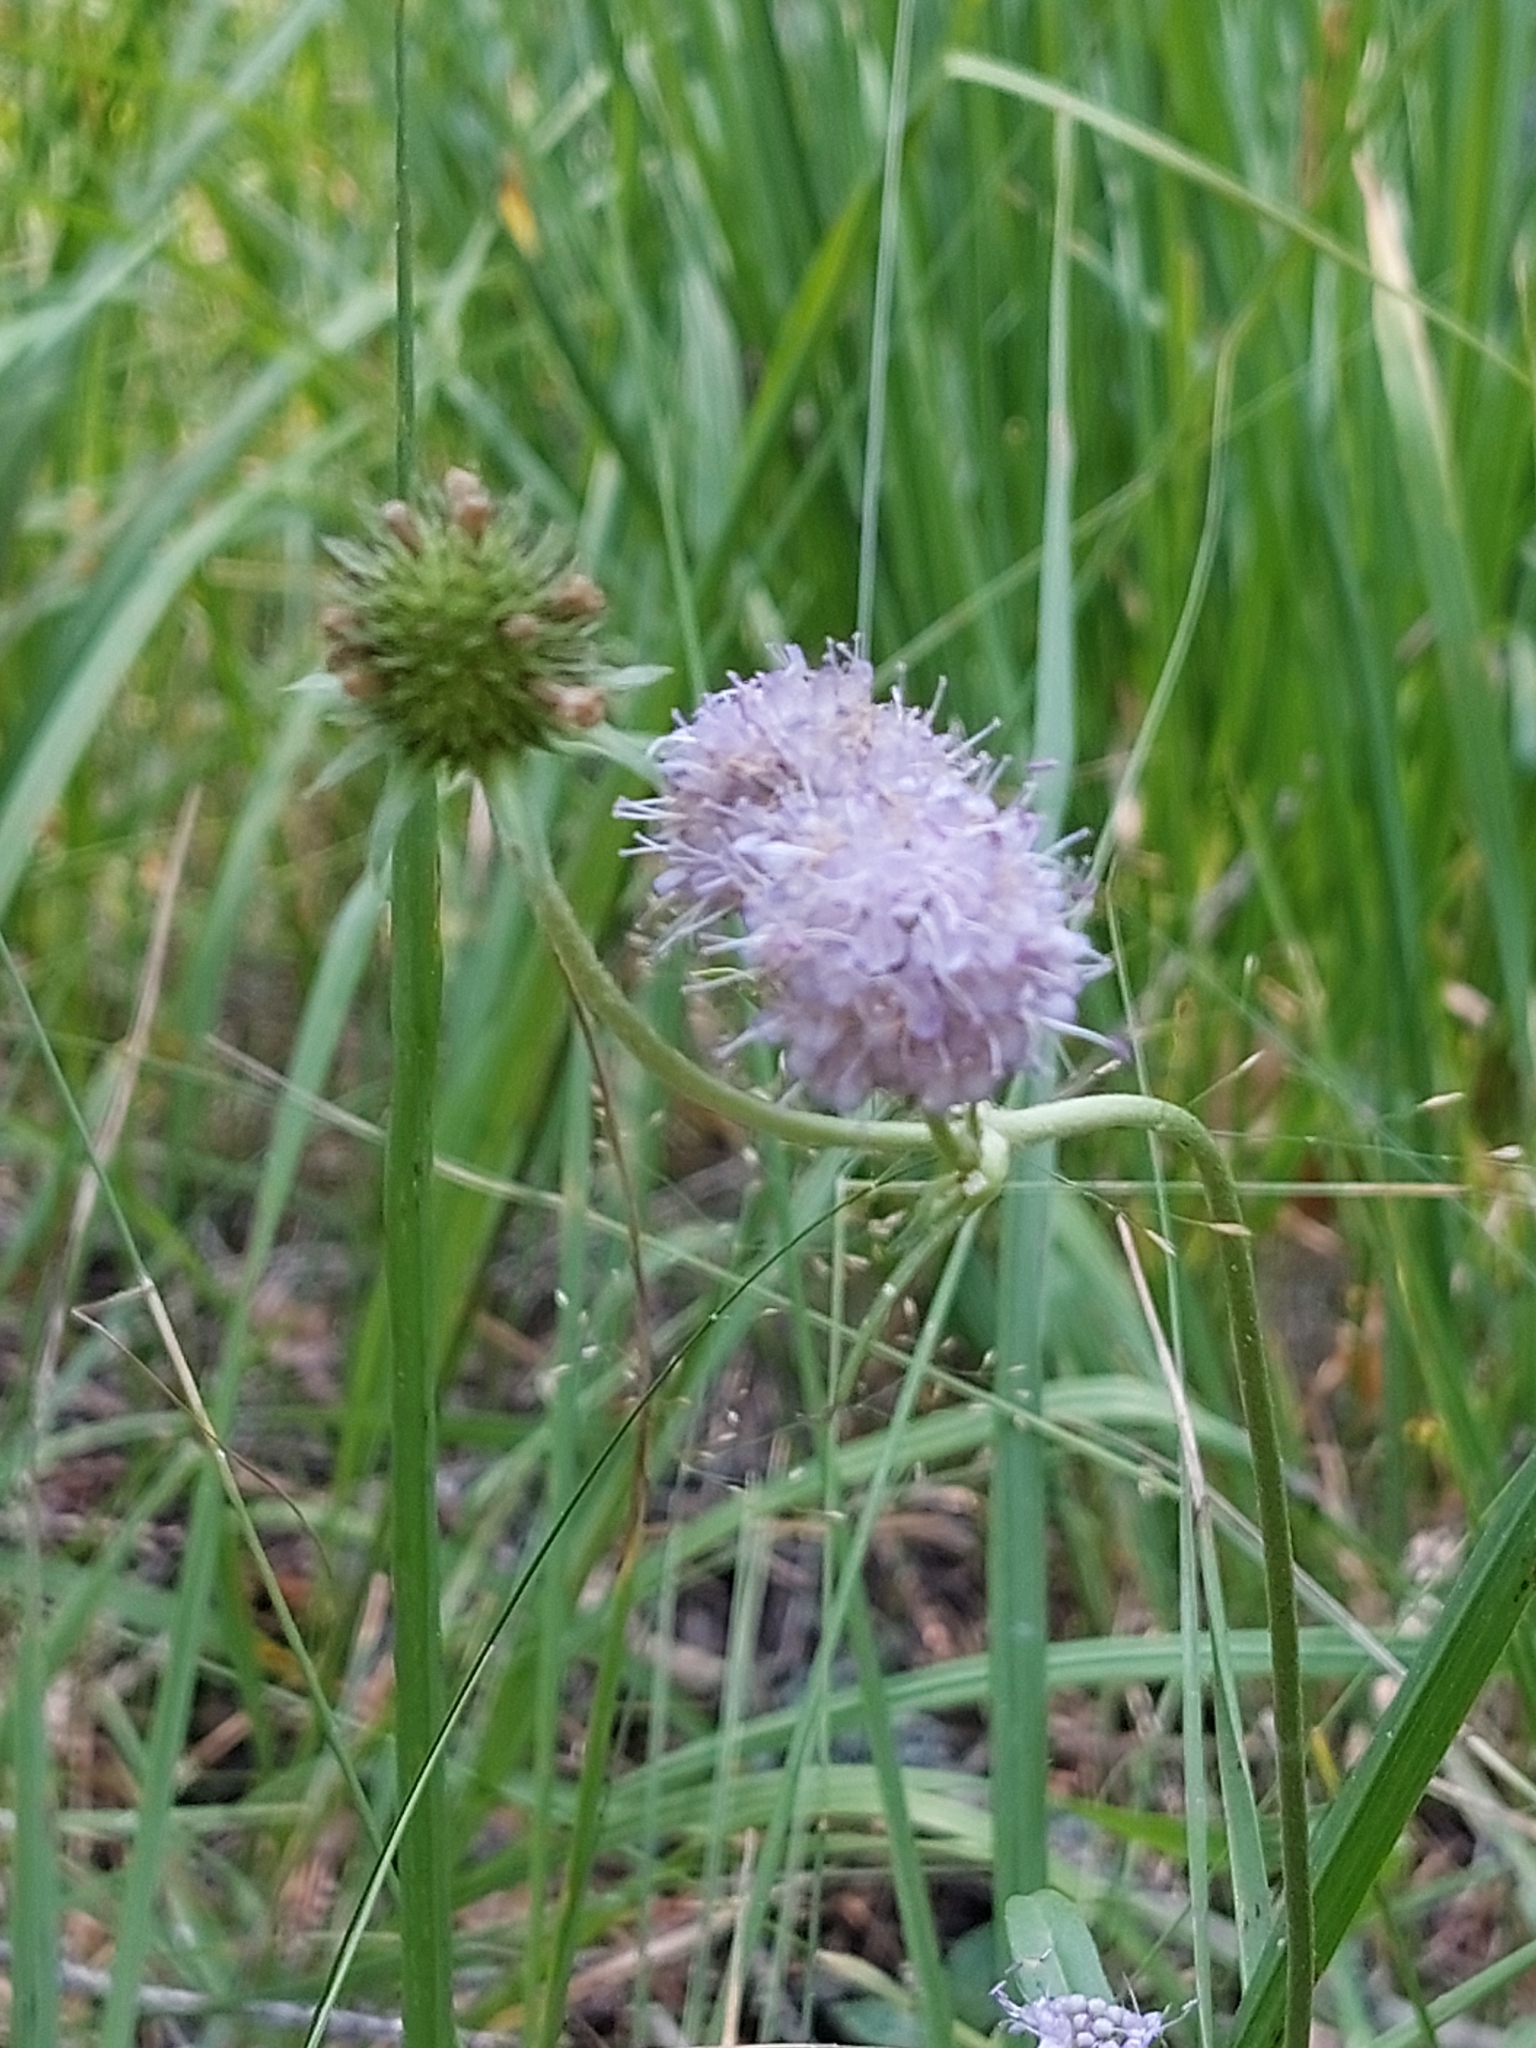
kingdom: Plantae
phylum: Tracheophyta
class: Magnoliopsida
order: Dipsacales
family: Caprifoliaceae
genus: Succisa
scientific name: Succisa pratensis
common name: Devil's-bit
